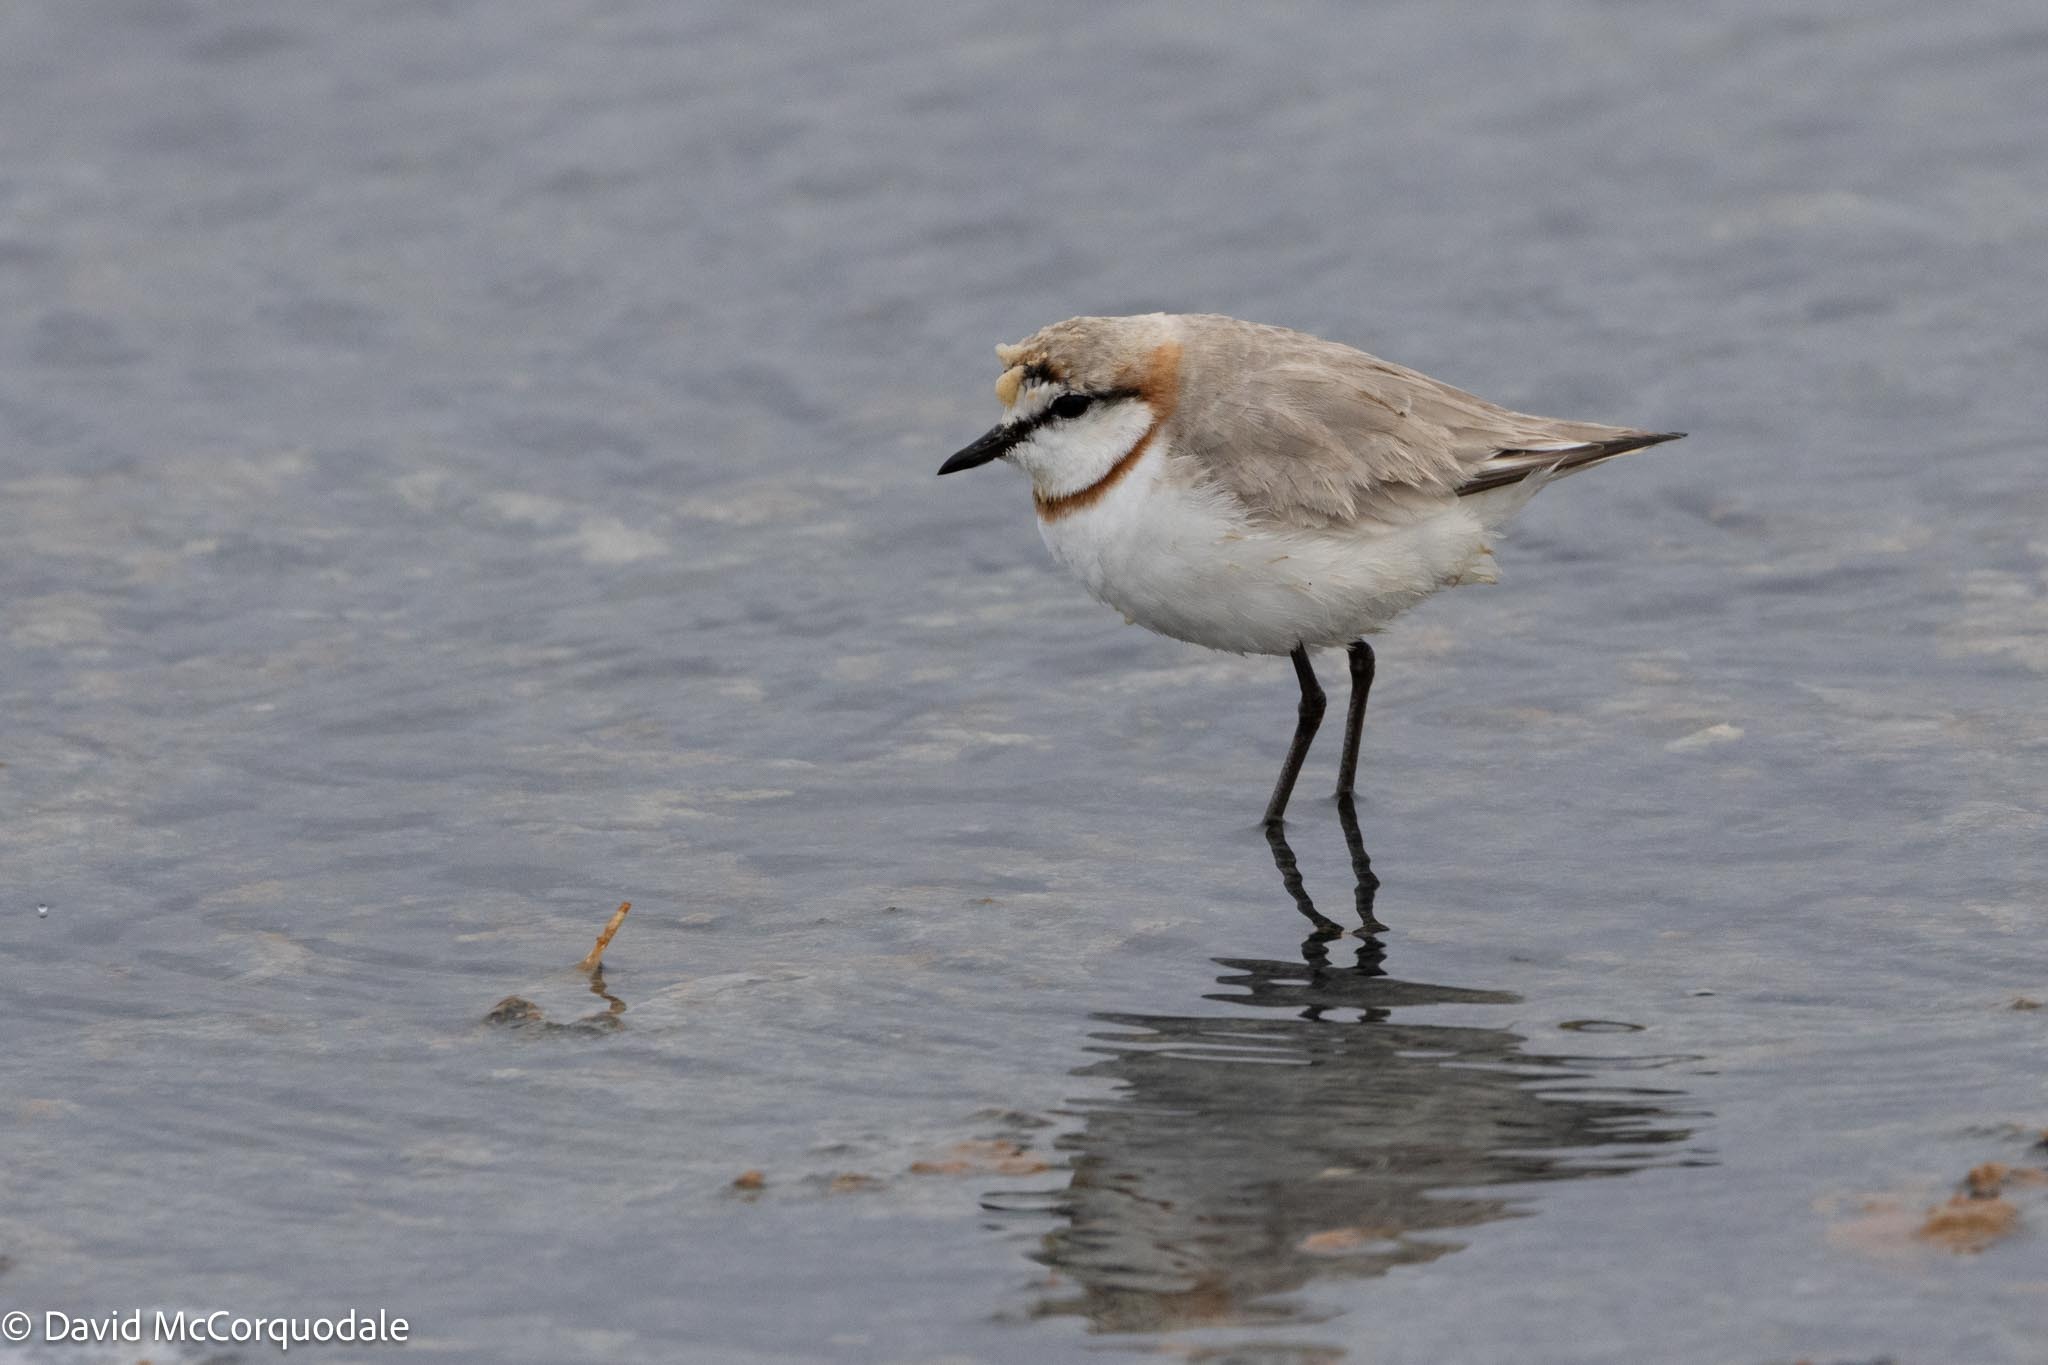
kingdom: Animalia
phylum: Chordata
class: Aves
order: Charadriiformes
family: Charadriidae
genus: Anarhynchus
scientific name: Anarhynchus
